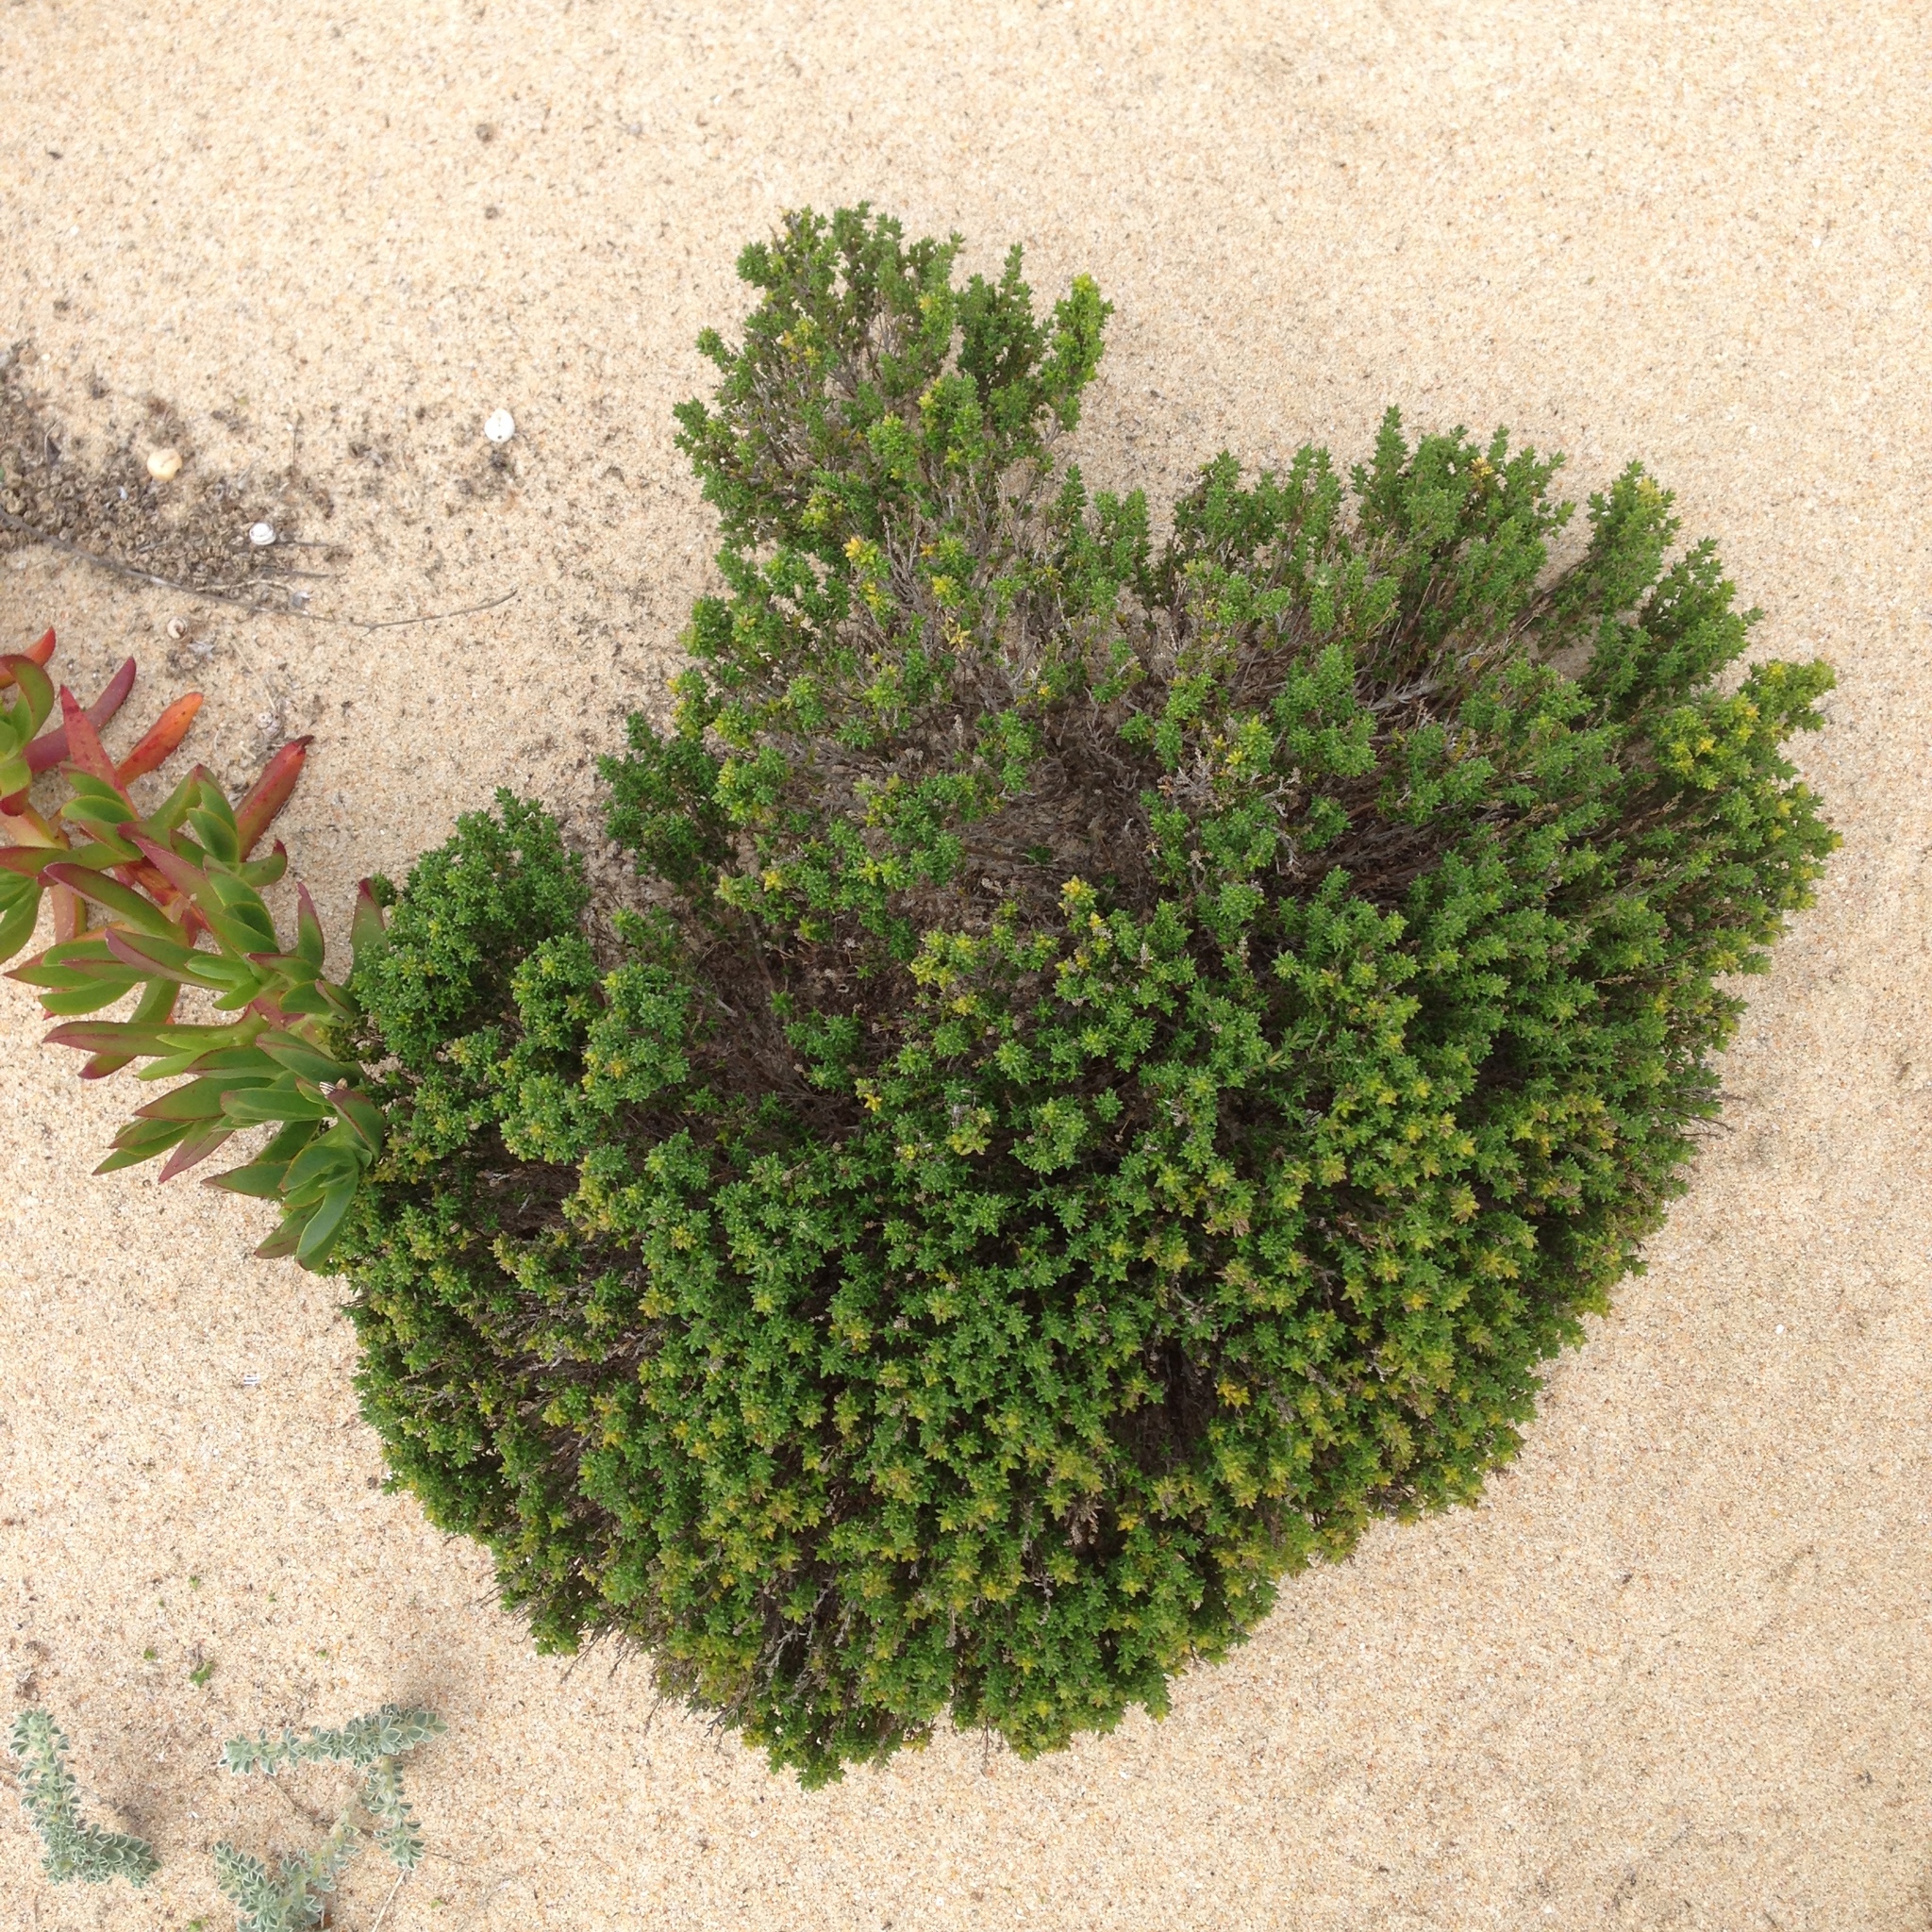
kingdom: Plantae
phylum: Tracheophyta
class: Magnoliopsida
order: Lamiales
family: Lamiaceae
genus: Thymus
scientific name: Thymus carnosus
